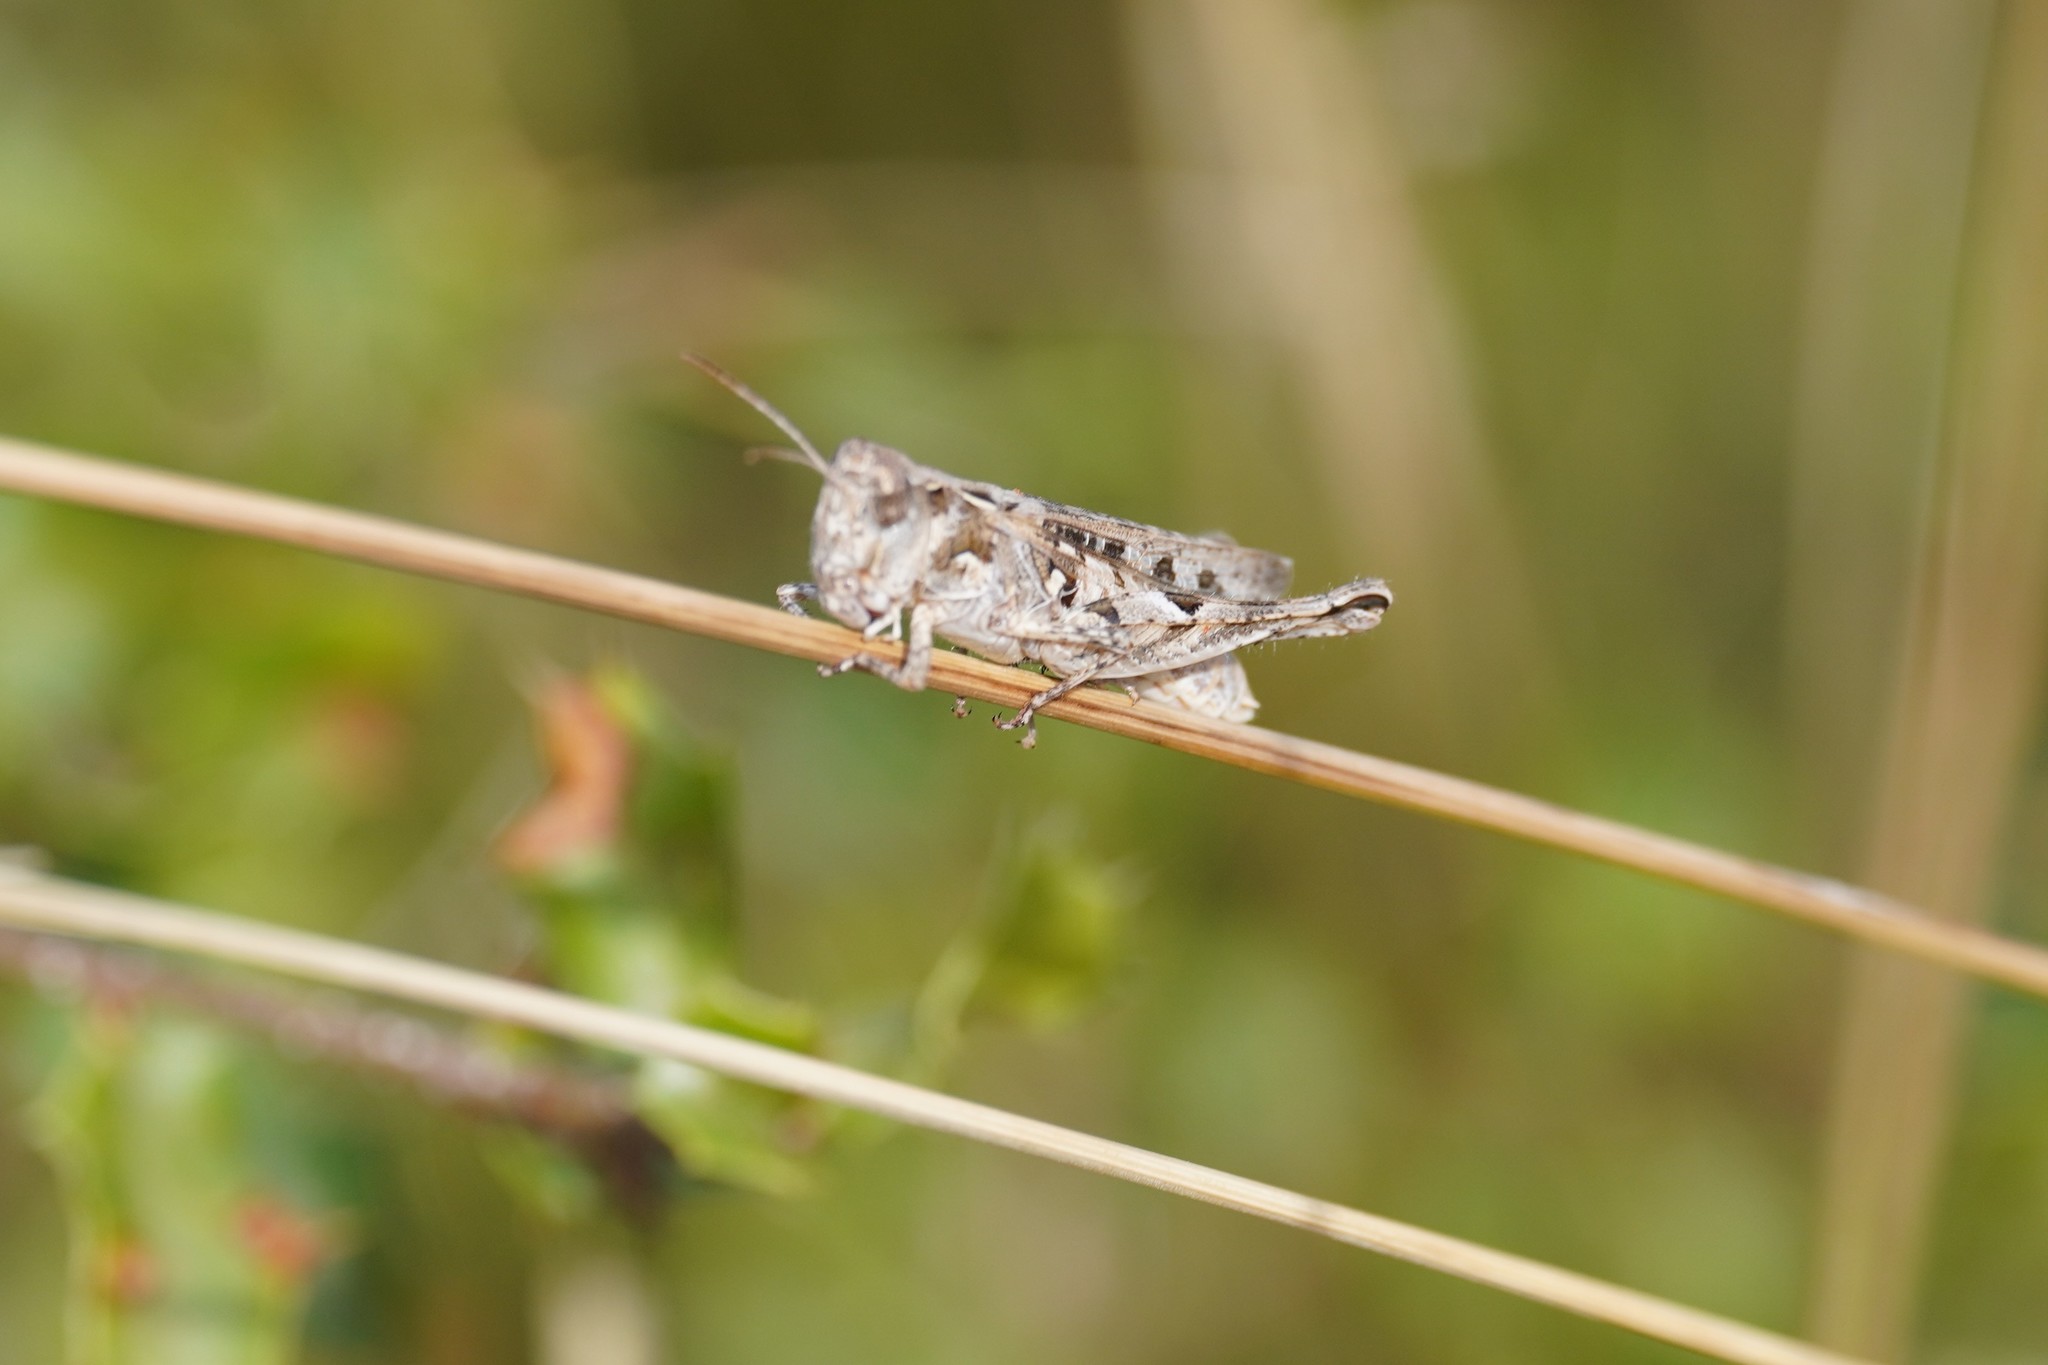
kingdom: Animalia
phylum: Arthropoda
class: Insecta
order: Orthoptera
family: Acrididae
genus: Dociostaurus
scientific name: Dociostaurus jagoi
